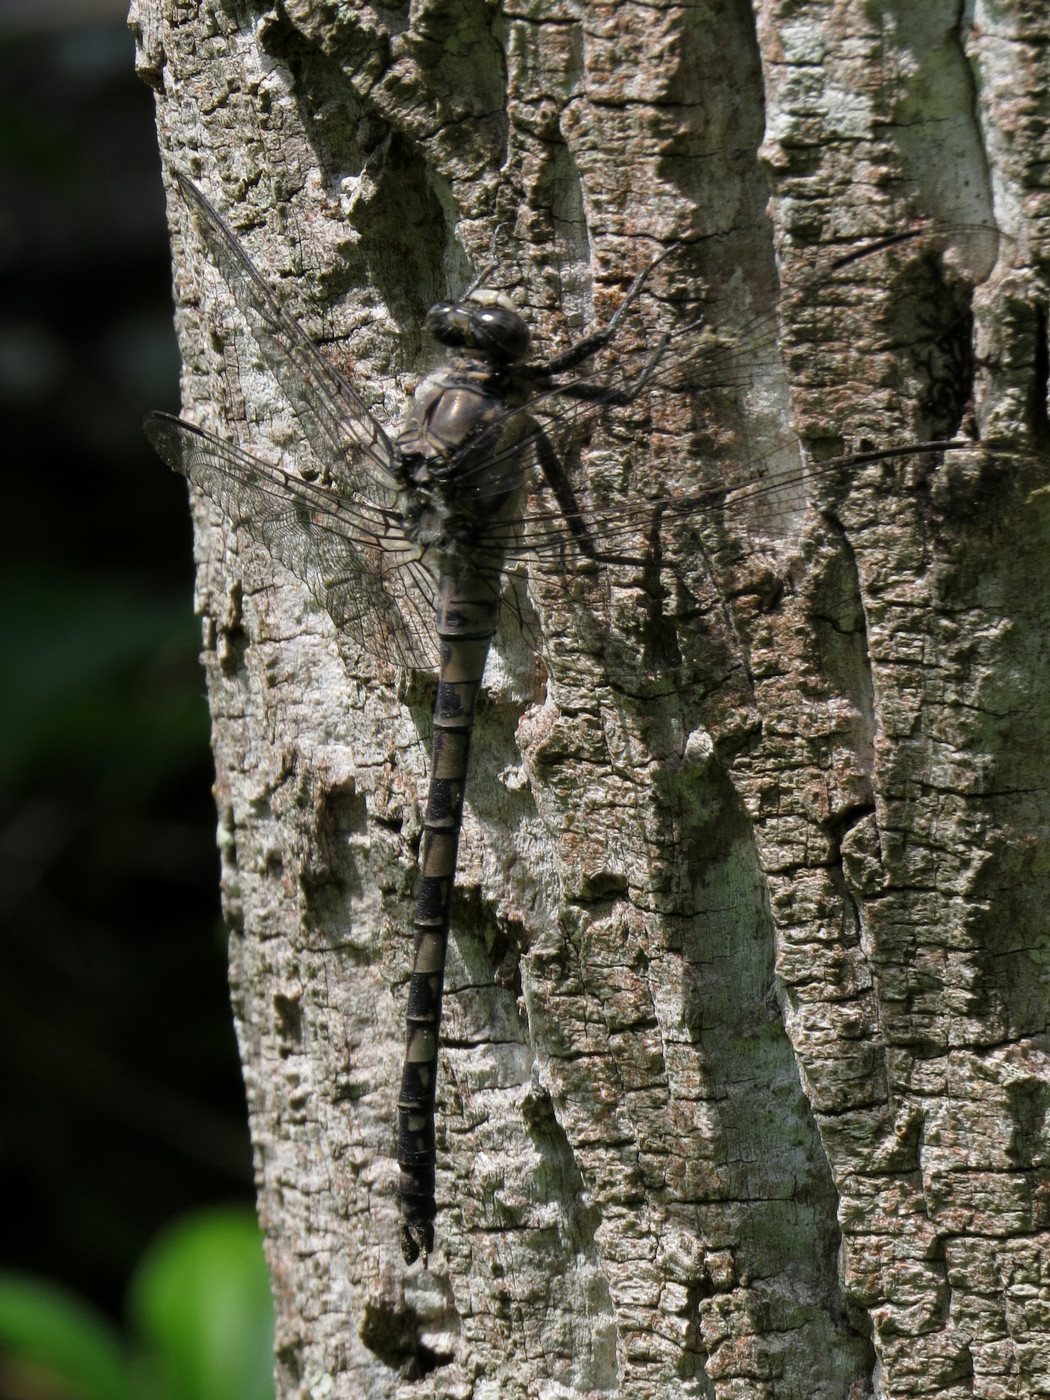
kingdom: Animalia
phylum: Arthropoda
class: Insecta
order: Odonata
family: Petaluridae
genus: Tachopteryx
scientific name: Tachopteryx thoreyi
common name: Gray petaltail
